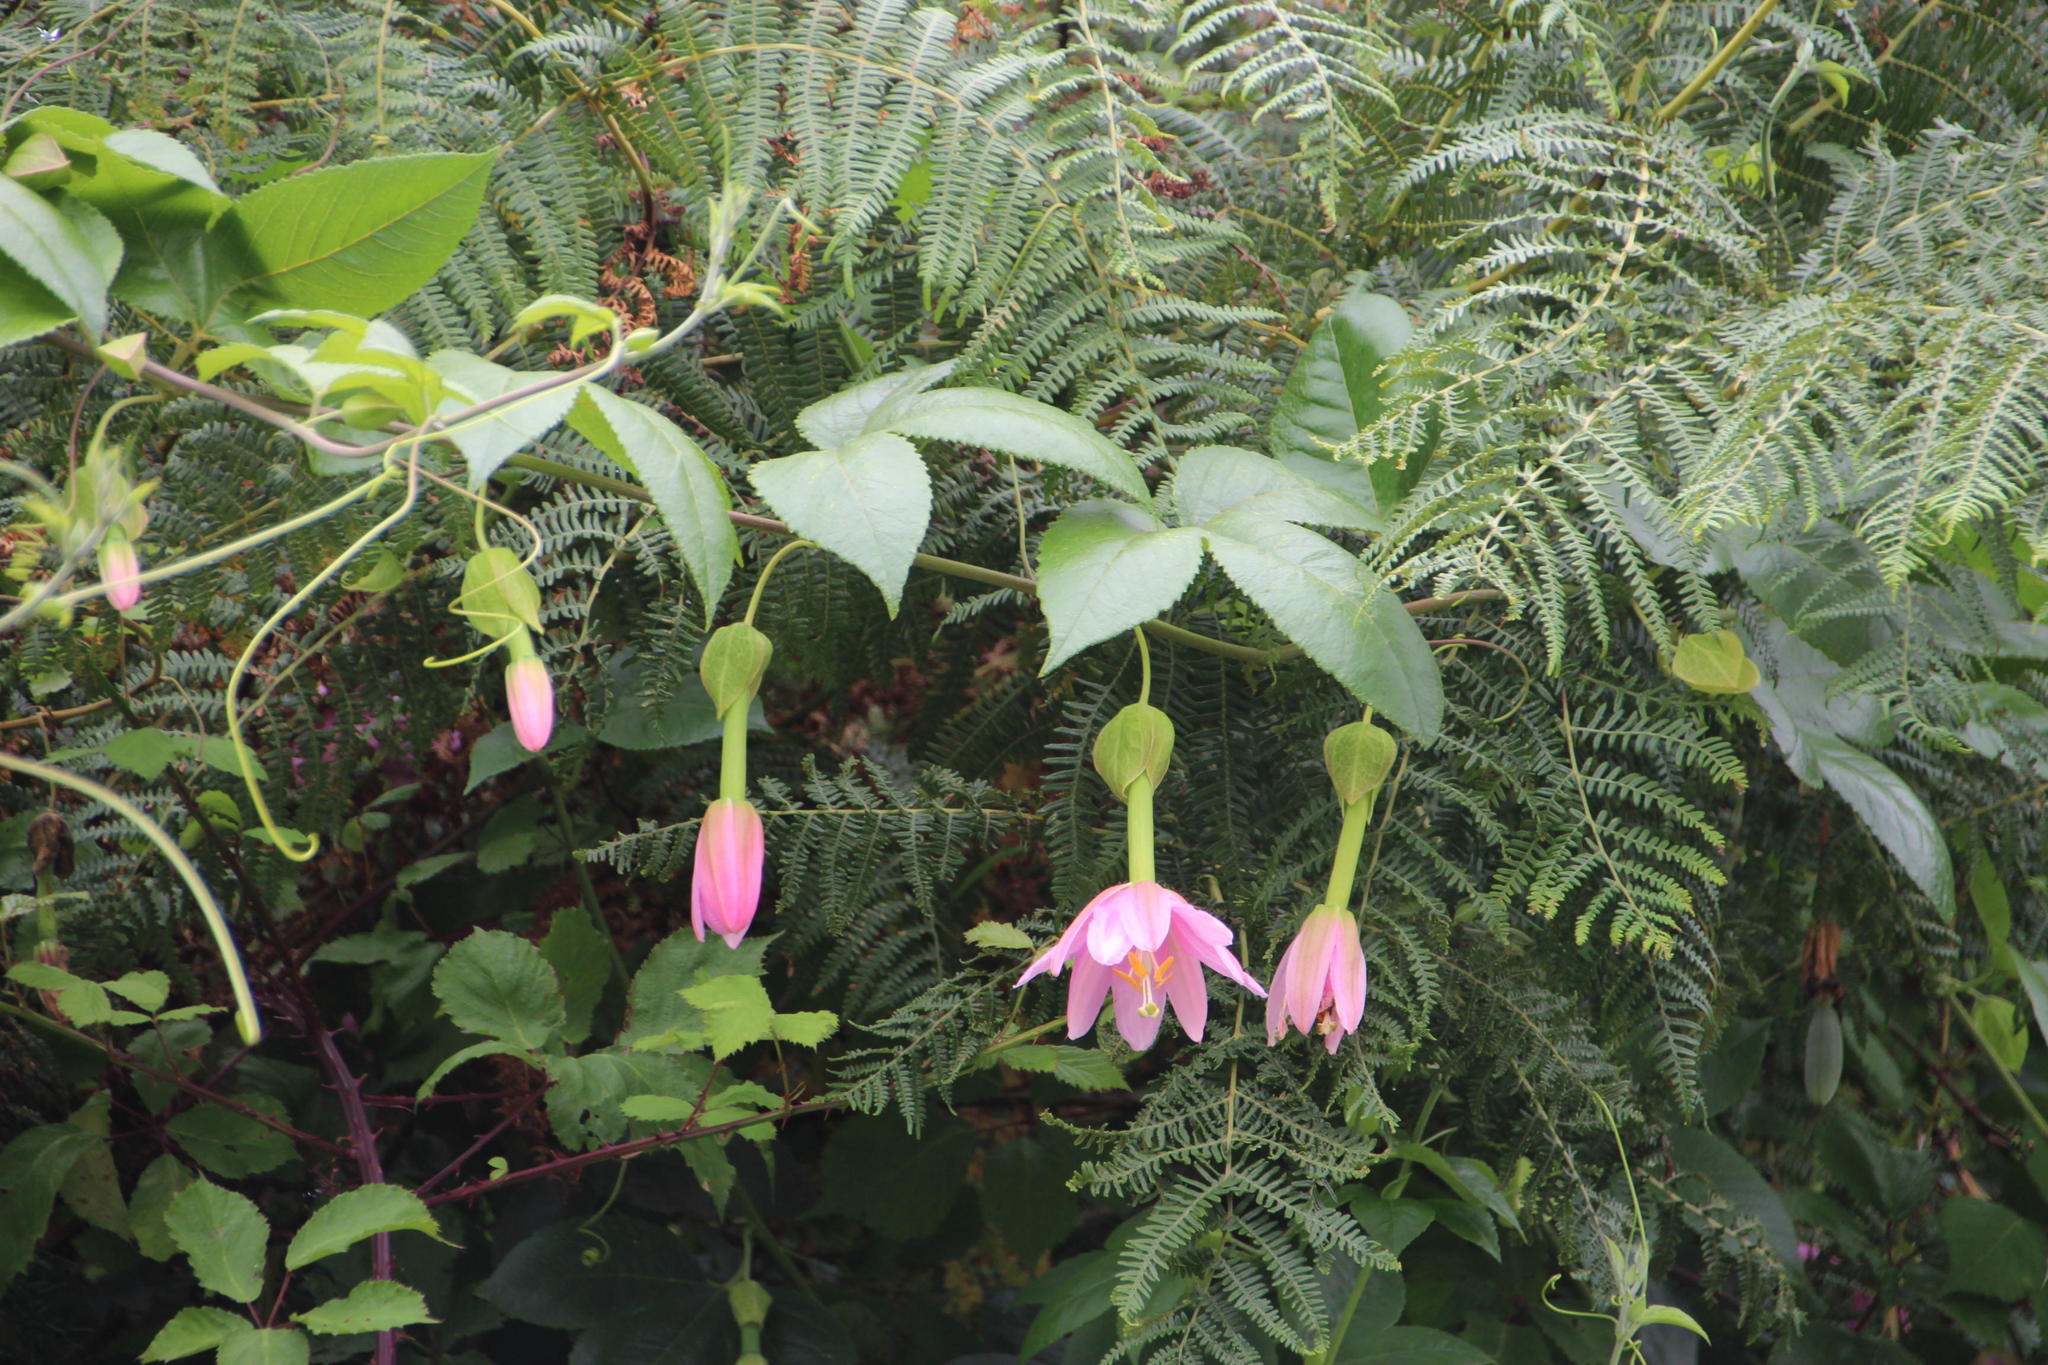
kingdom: Plantae
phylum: Tracheophyta
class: Magnoliopsida
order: Malpighiales
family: Passifloraceae
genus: Passiflora
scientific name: Passiflora tarminiana
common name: Banana poka
